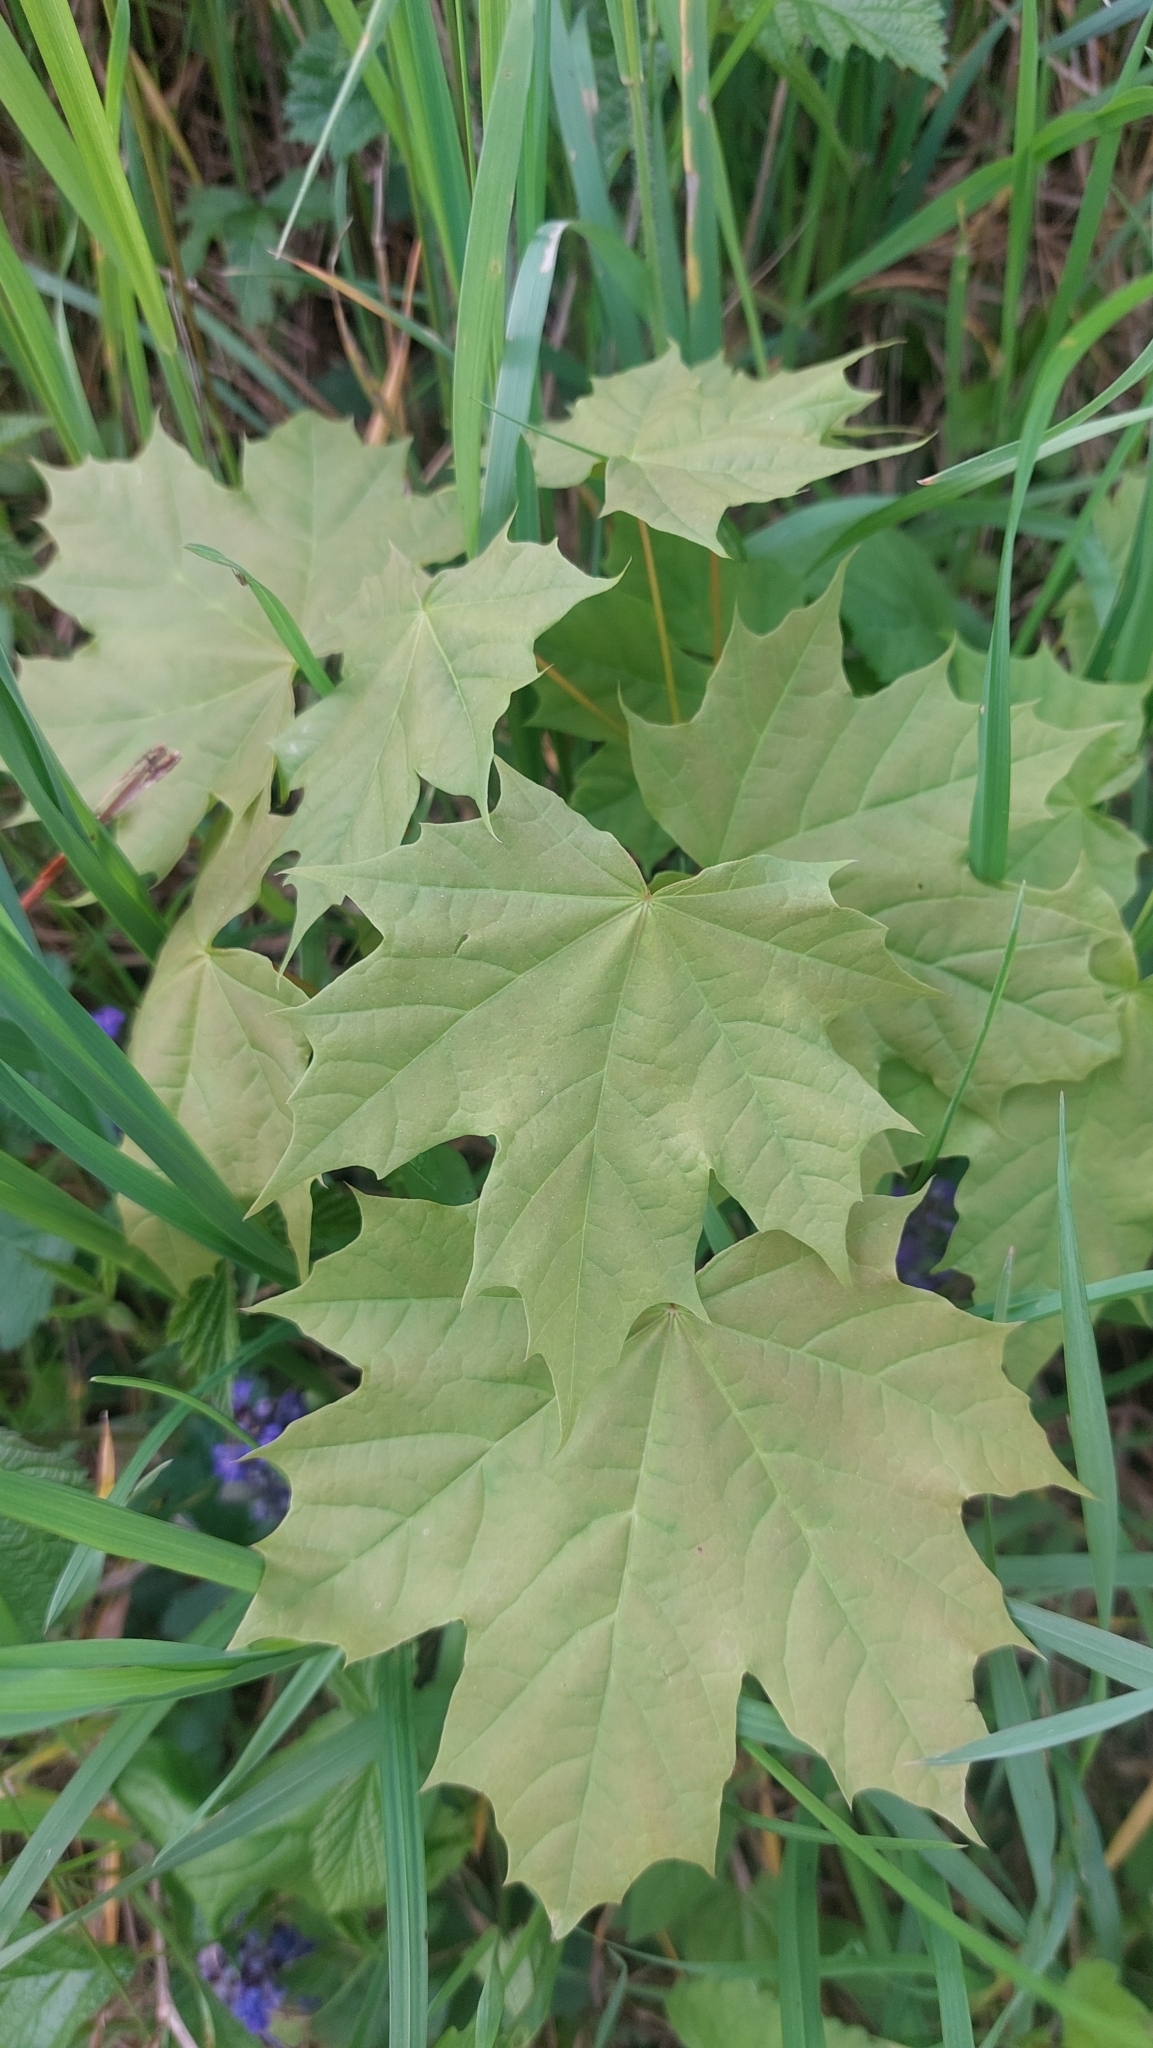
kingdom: Plantae
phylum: Tracheophyta
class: Magnoliopsida
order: Sapindales
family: Sapindaceae
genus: Acer
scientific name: Acer platanoides
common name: Norway maple
